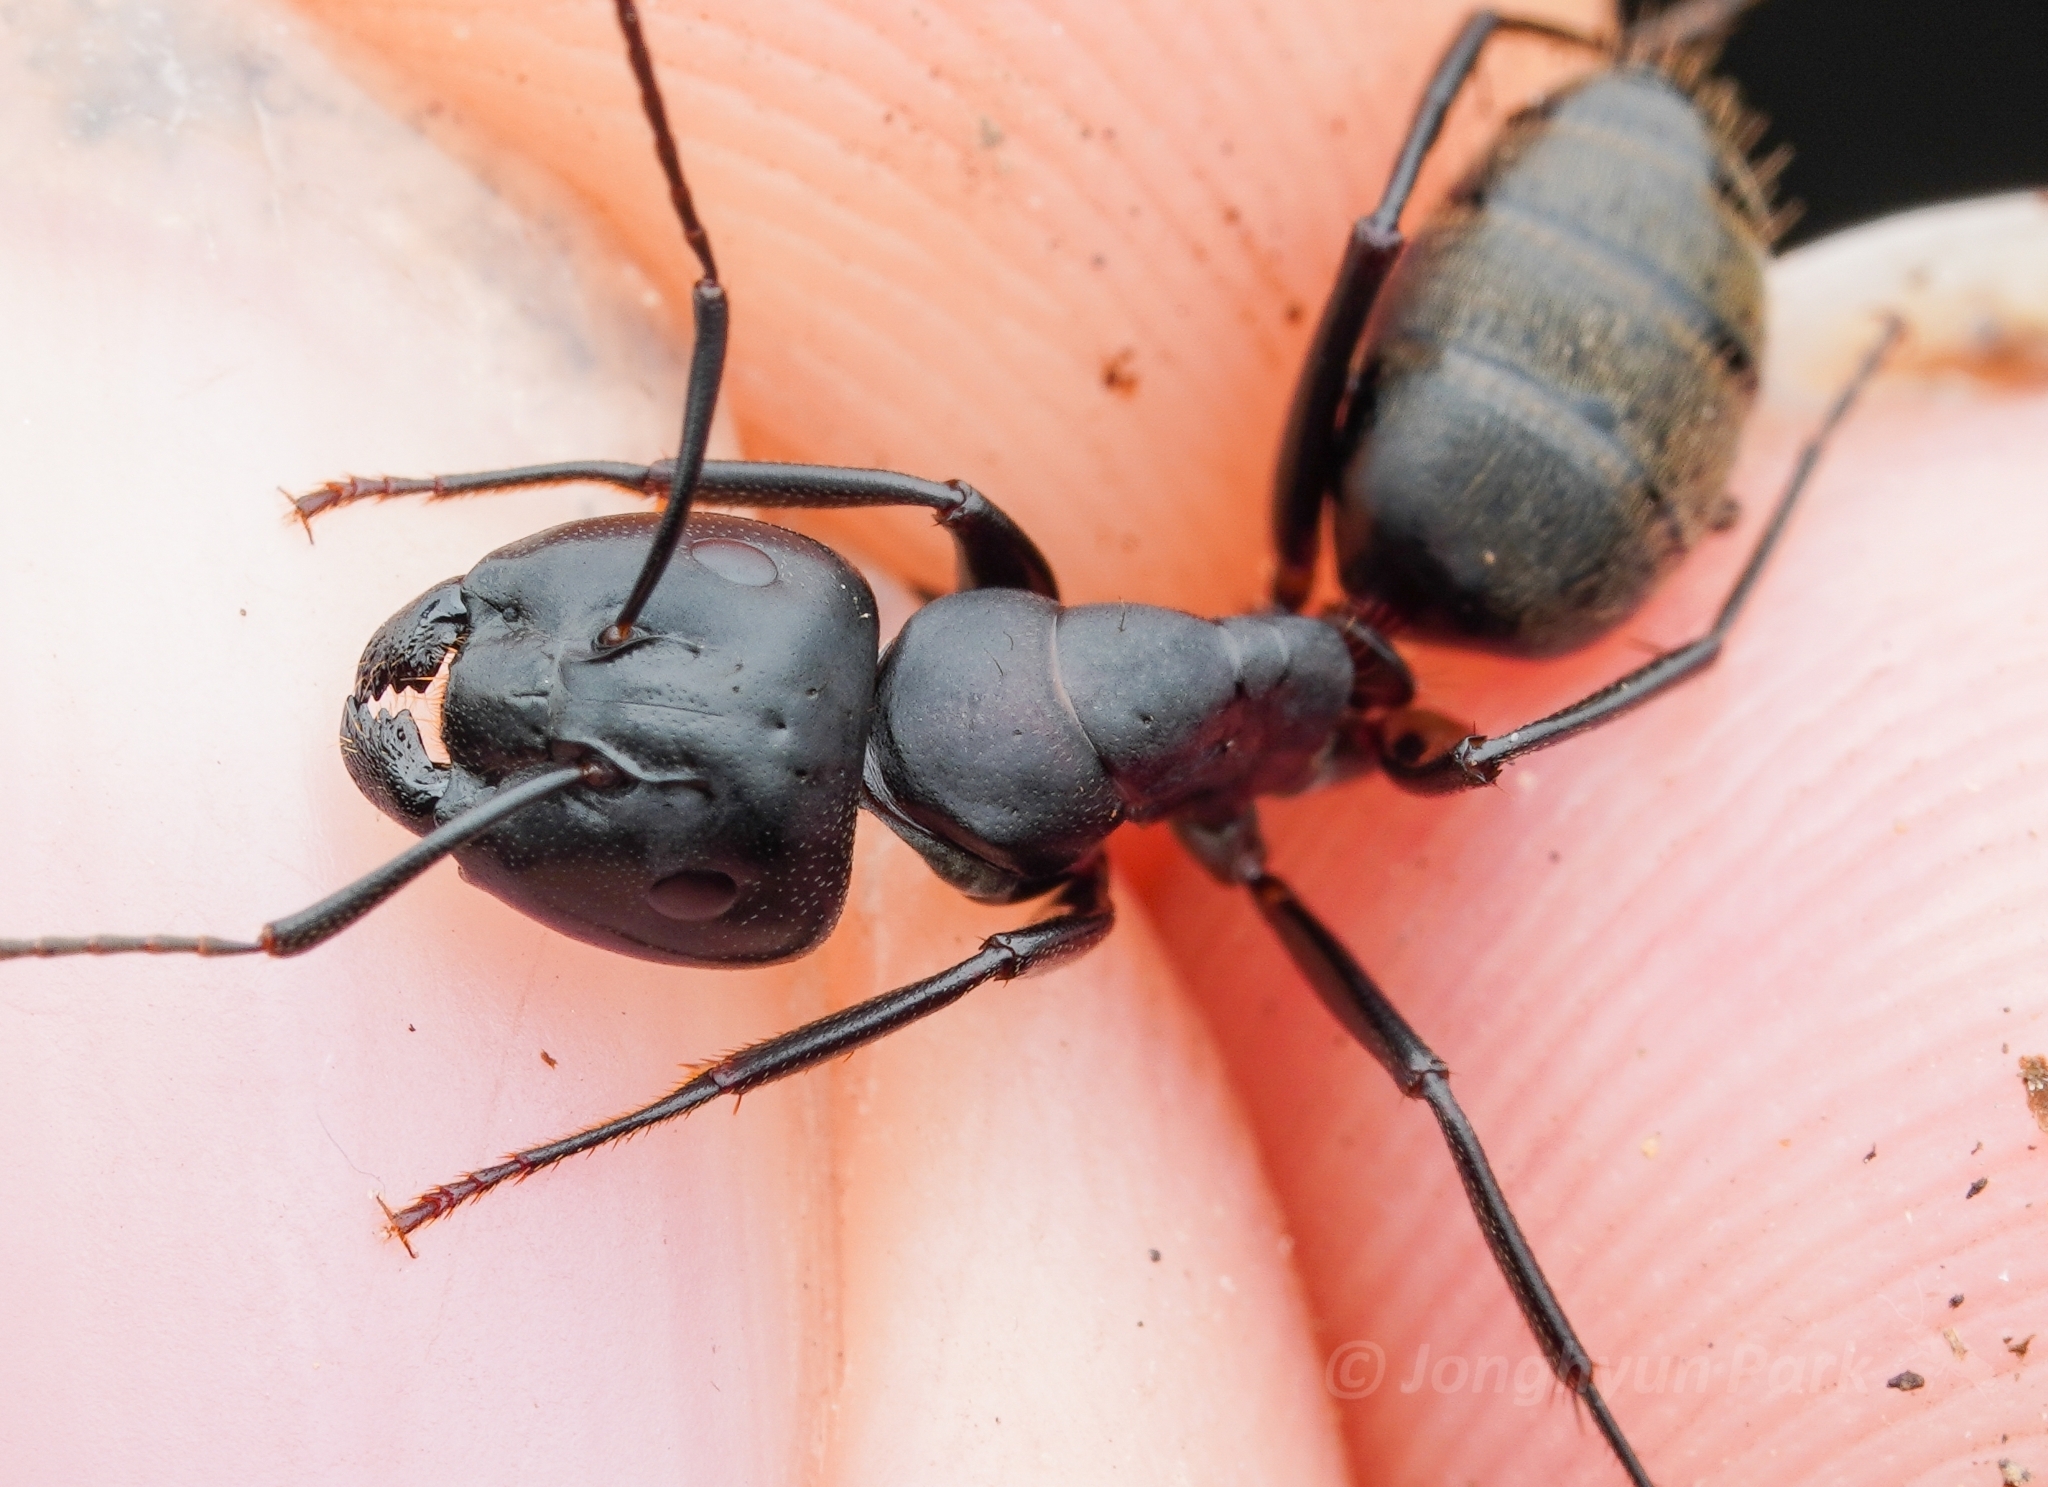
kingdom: Animalia
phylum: Arthropoda
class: Insecta
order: Hymenoptera
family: Formicidae
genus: Camponotus
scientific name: Camponotus atrox
